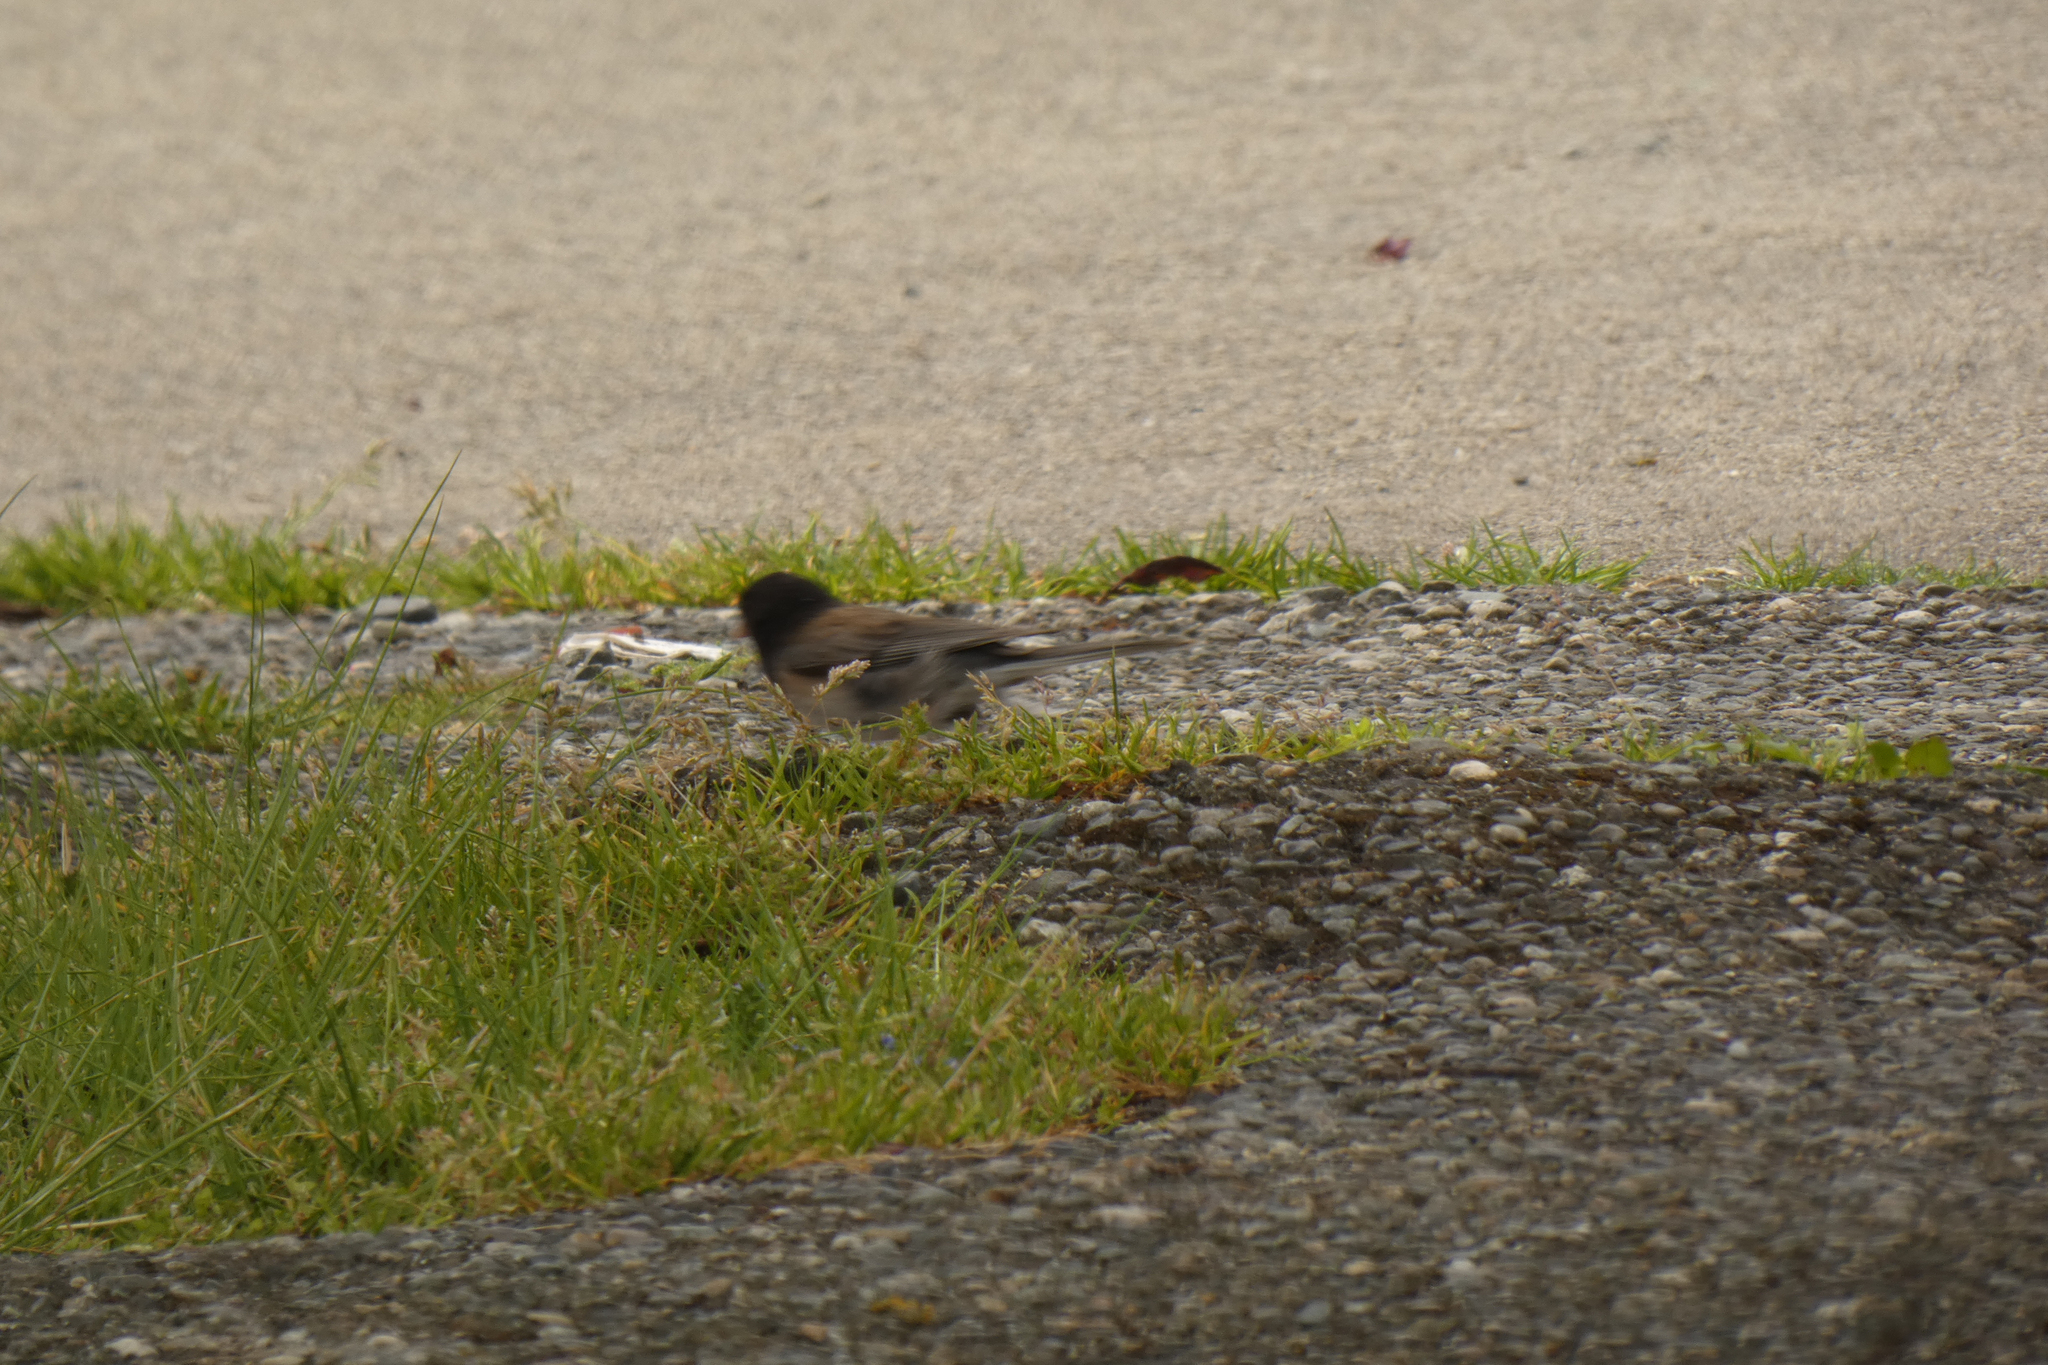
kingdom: Animalia
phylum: Chordata
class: Aves
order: Passeriformes
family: Passerellidae
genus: Junco
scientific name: Junco hyemalis
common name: Dark-eyed junco
